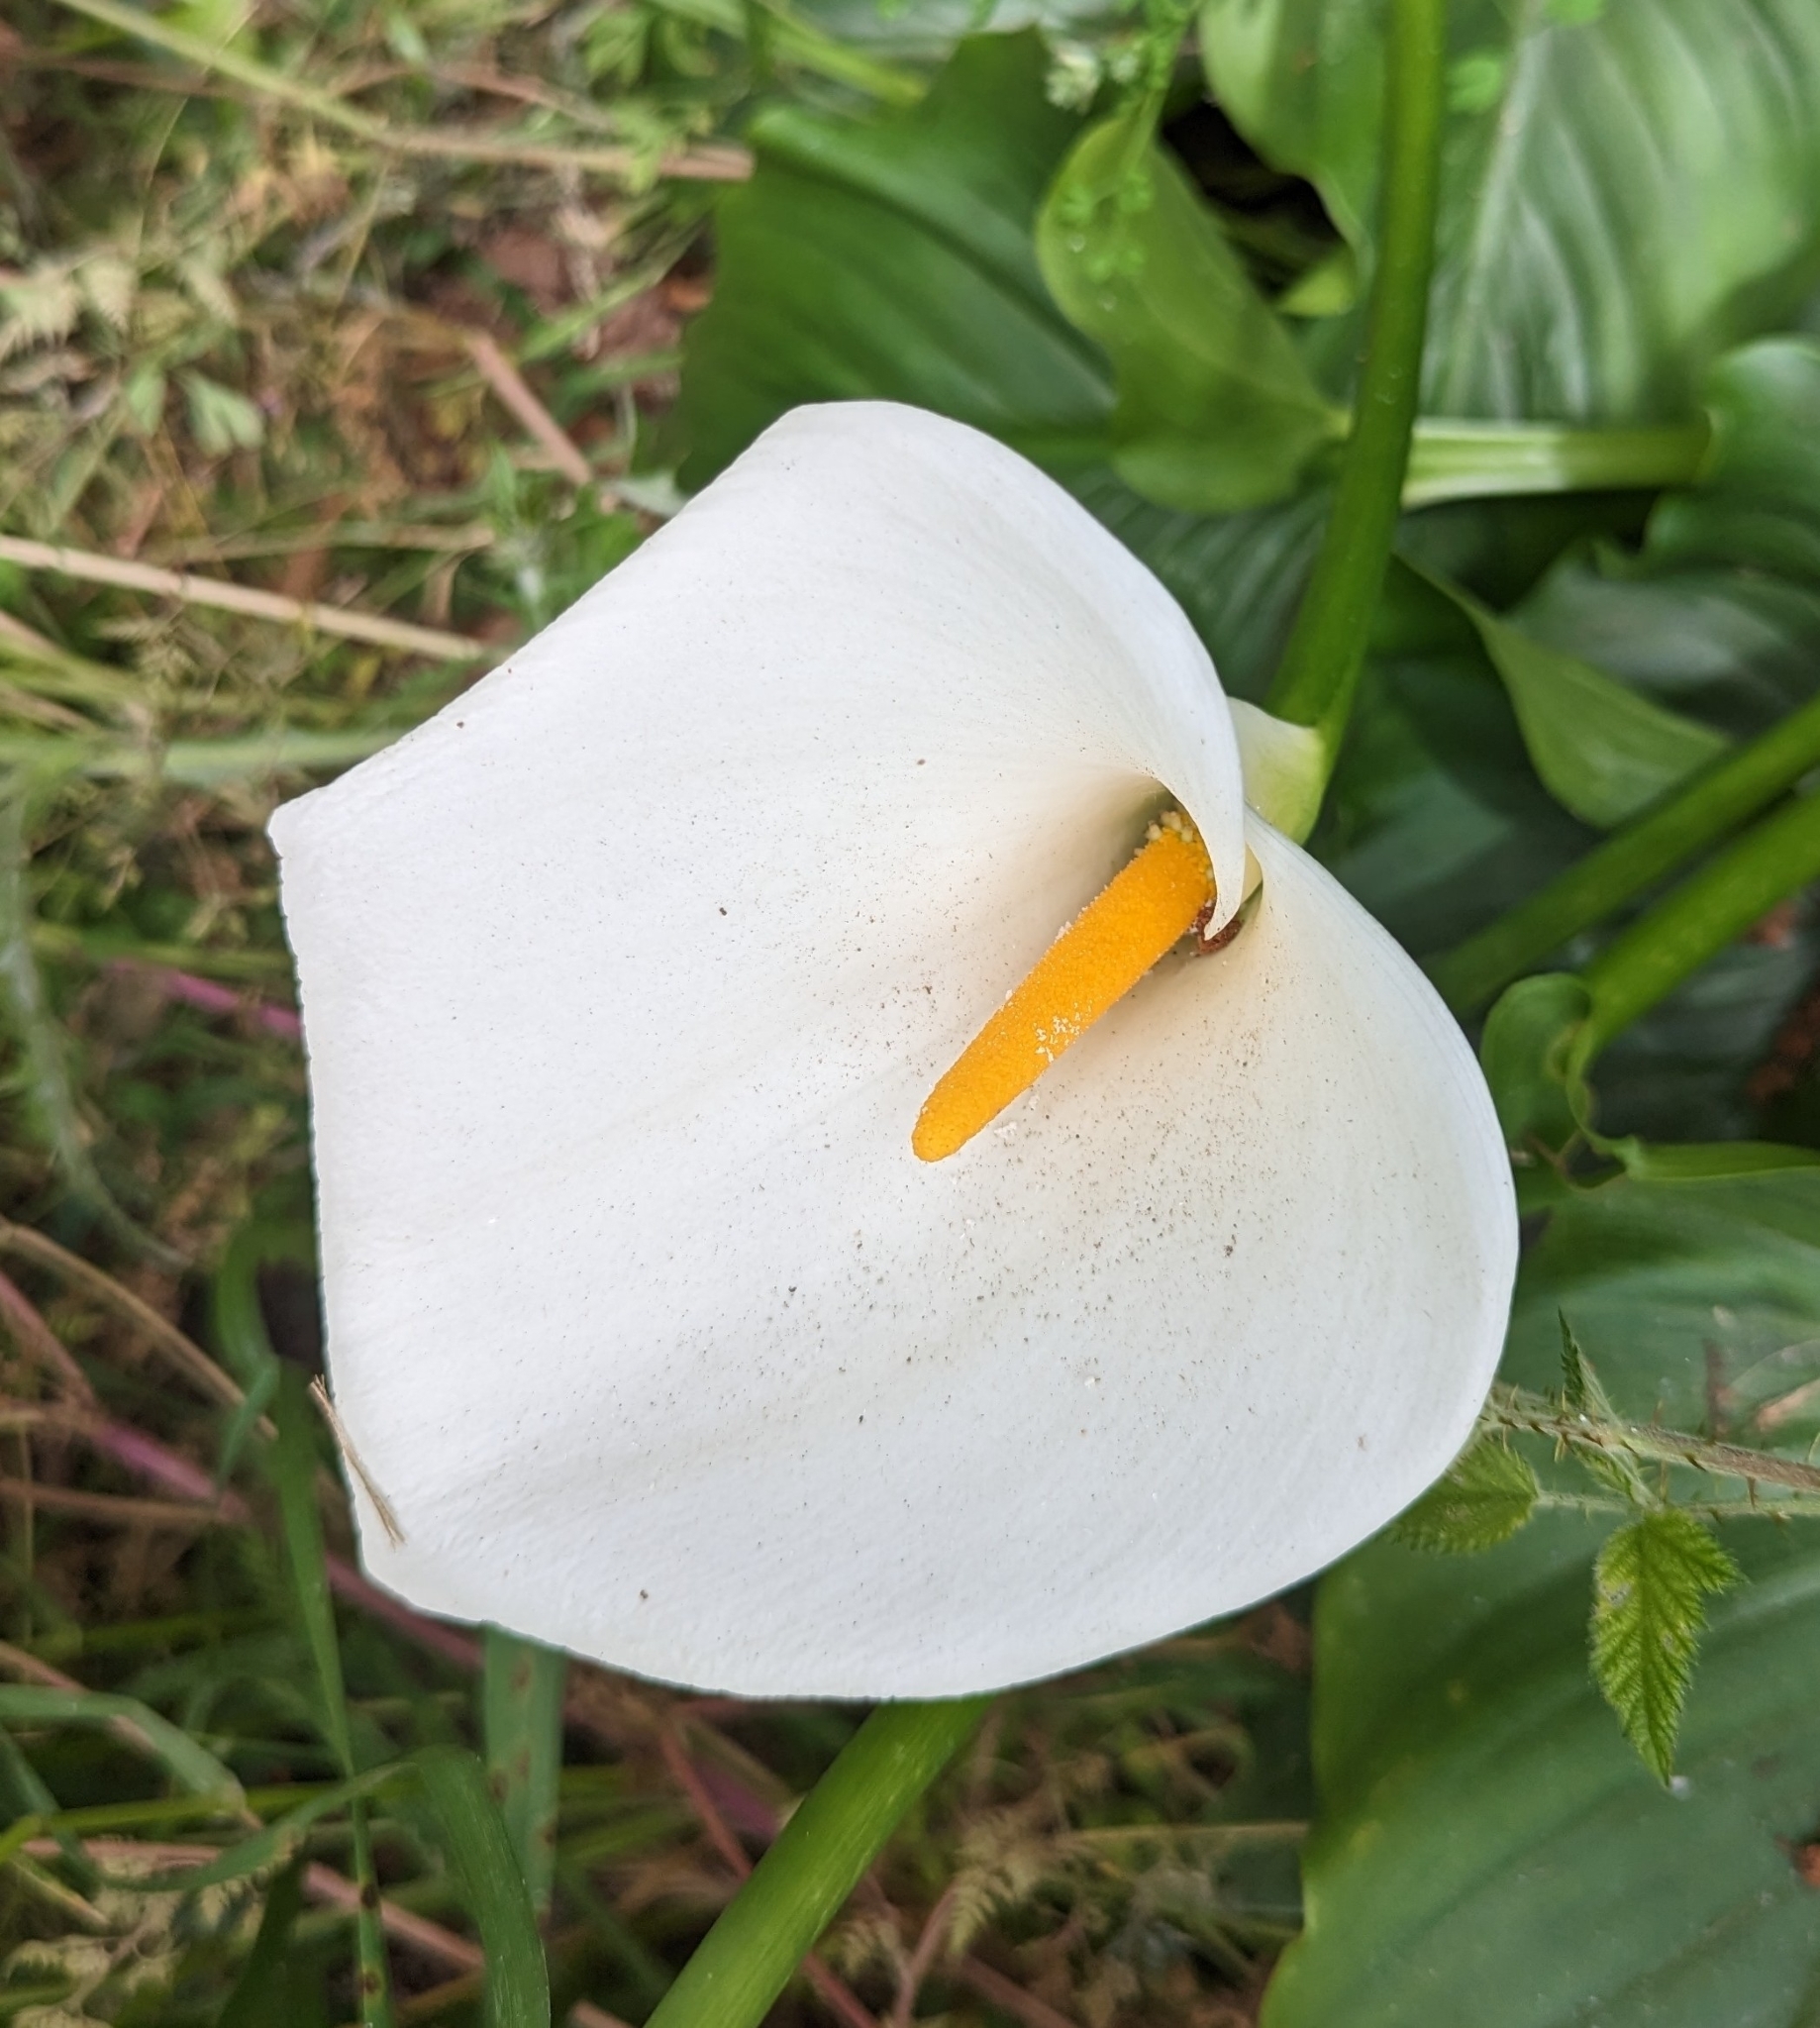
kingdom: Plantae
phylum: Tracheophyta
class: Liliopsida
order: Alismatales
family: Araceae
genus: Zantedeschia
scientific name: Zantedeschia aethiopica
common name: Altar-lily
